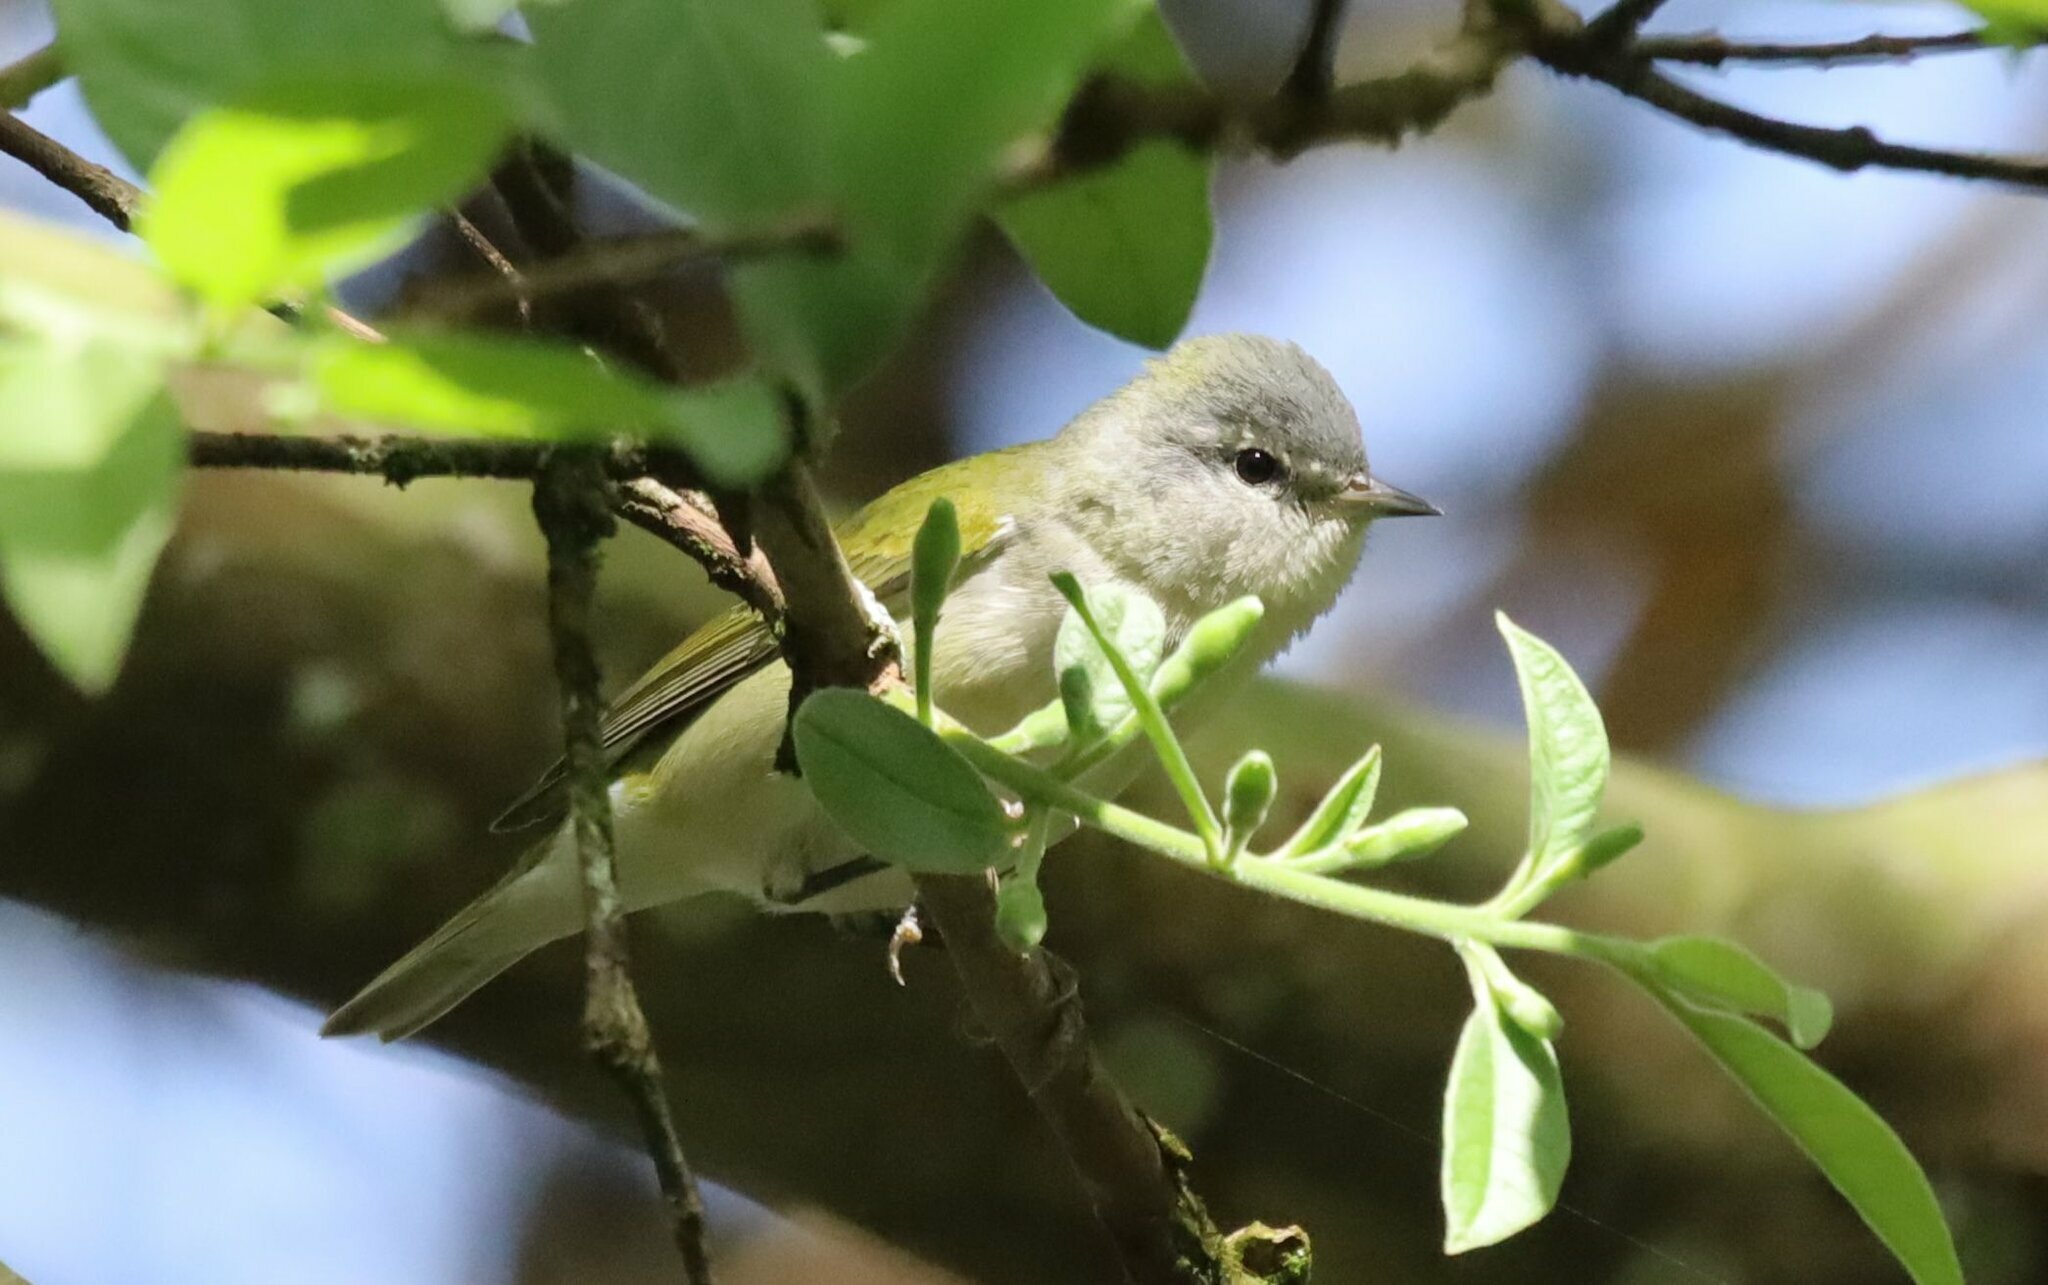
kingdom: Animalia
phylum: Chordata
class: Aves
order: Passeriformes
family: Parulidae
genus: Leiothlypis
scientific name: Leiothlypis peregrina
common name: Tennessee warbler
